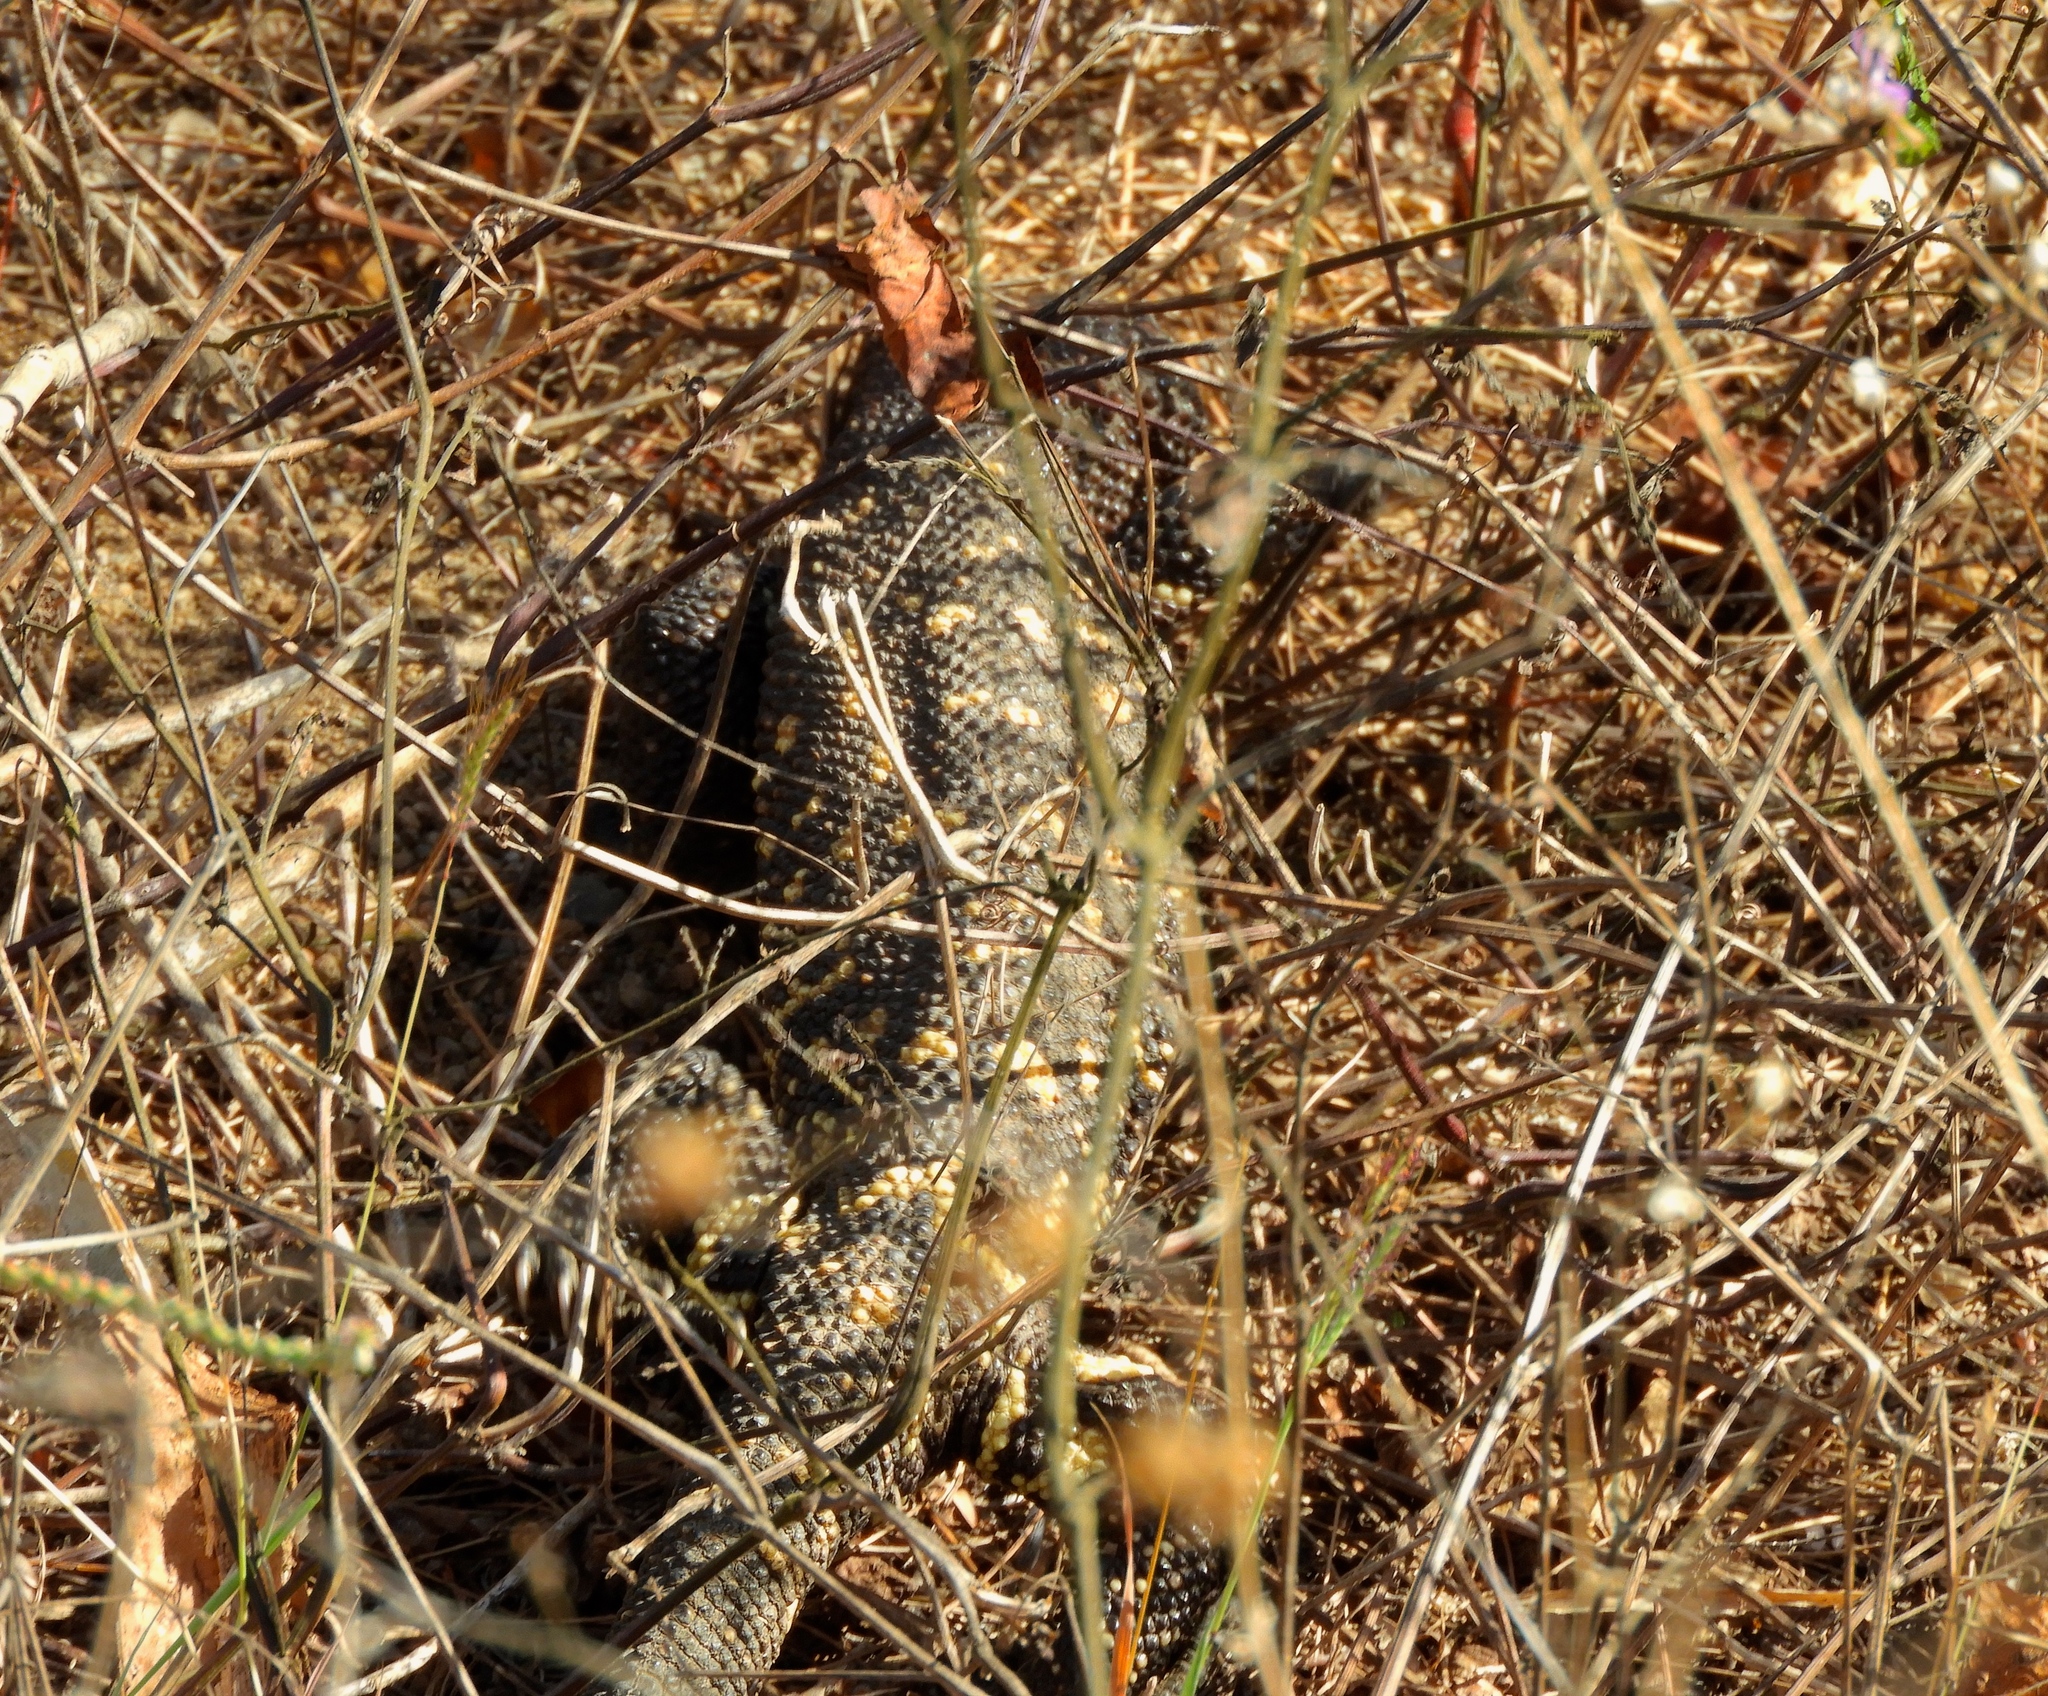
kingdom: Animalia
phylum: Chordata
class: Squamata
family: Helodermatidae
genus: Heloderma
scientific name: Heloderma horridum
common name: Mexican beaded lizard
